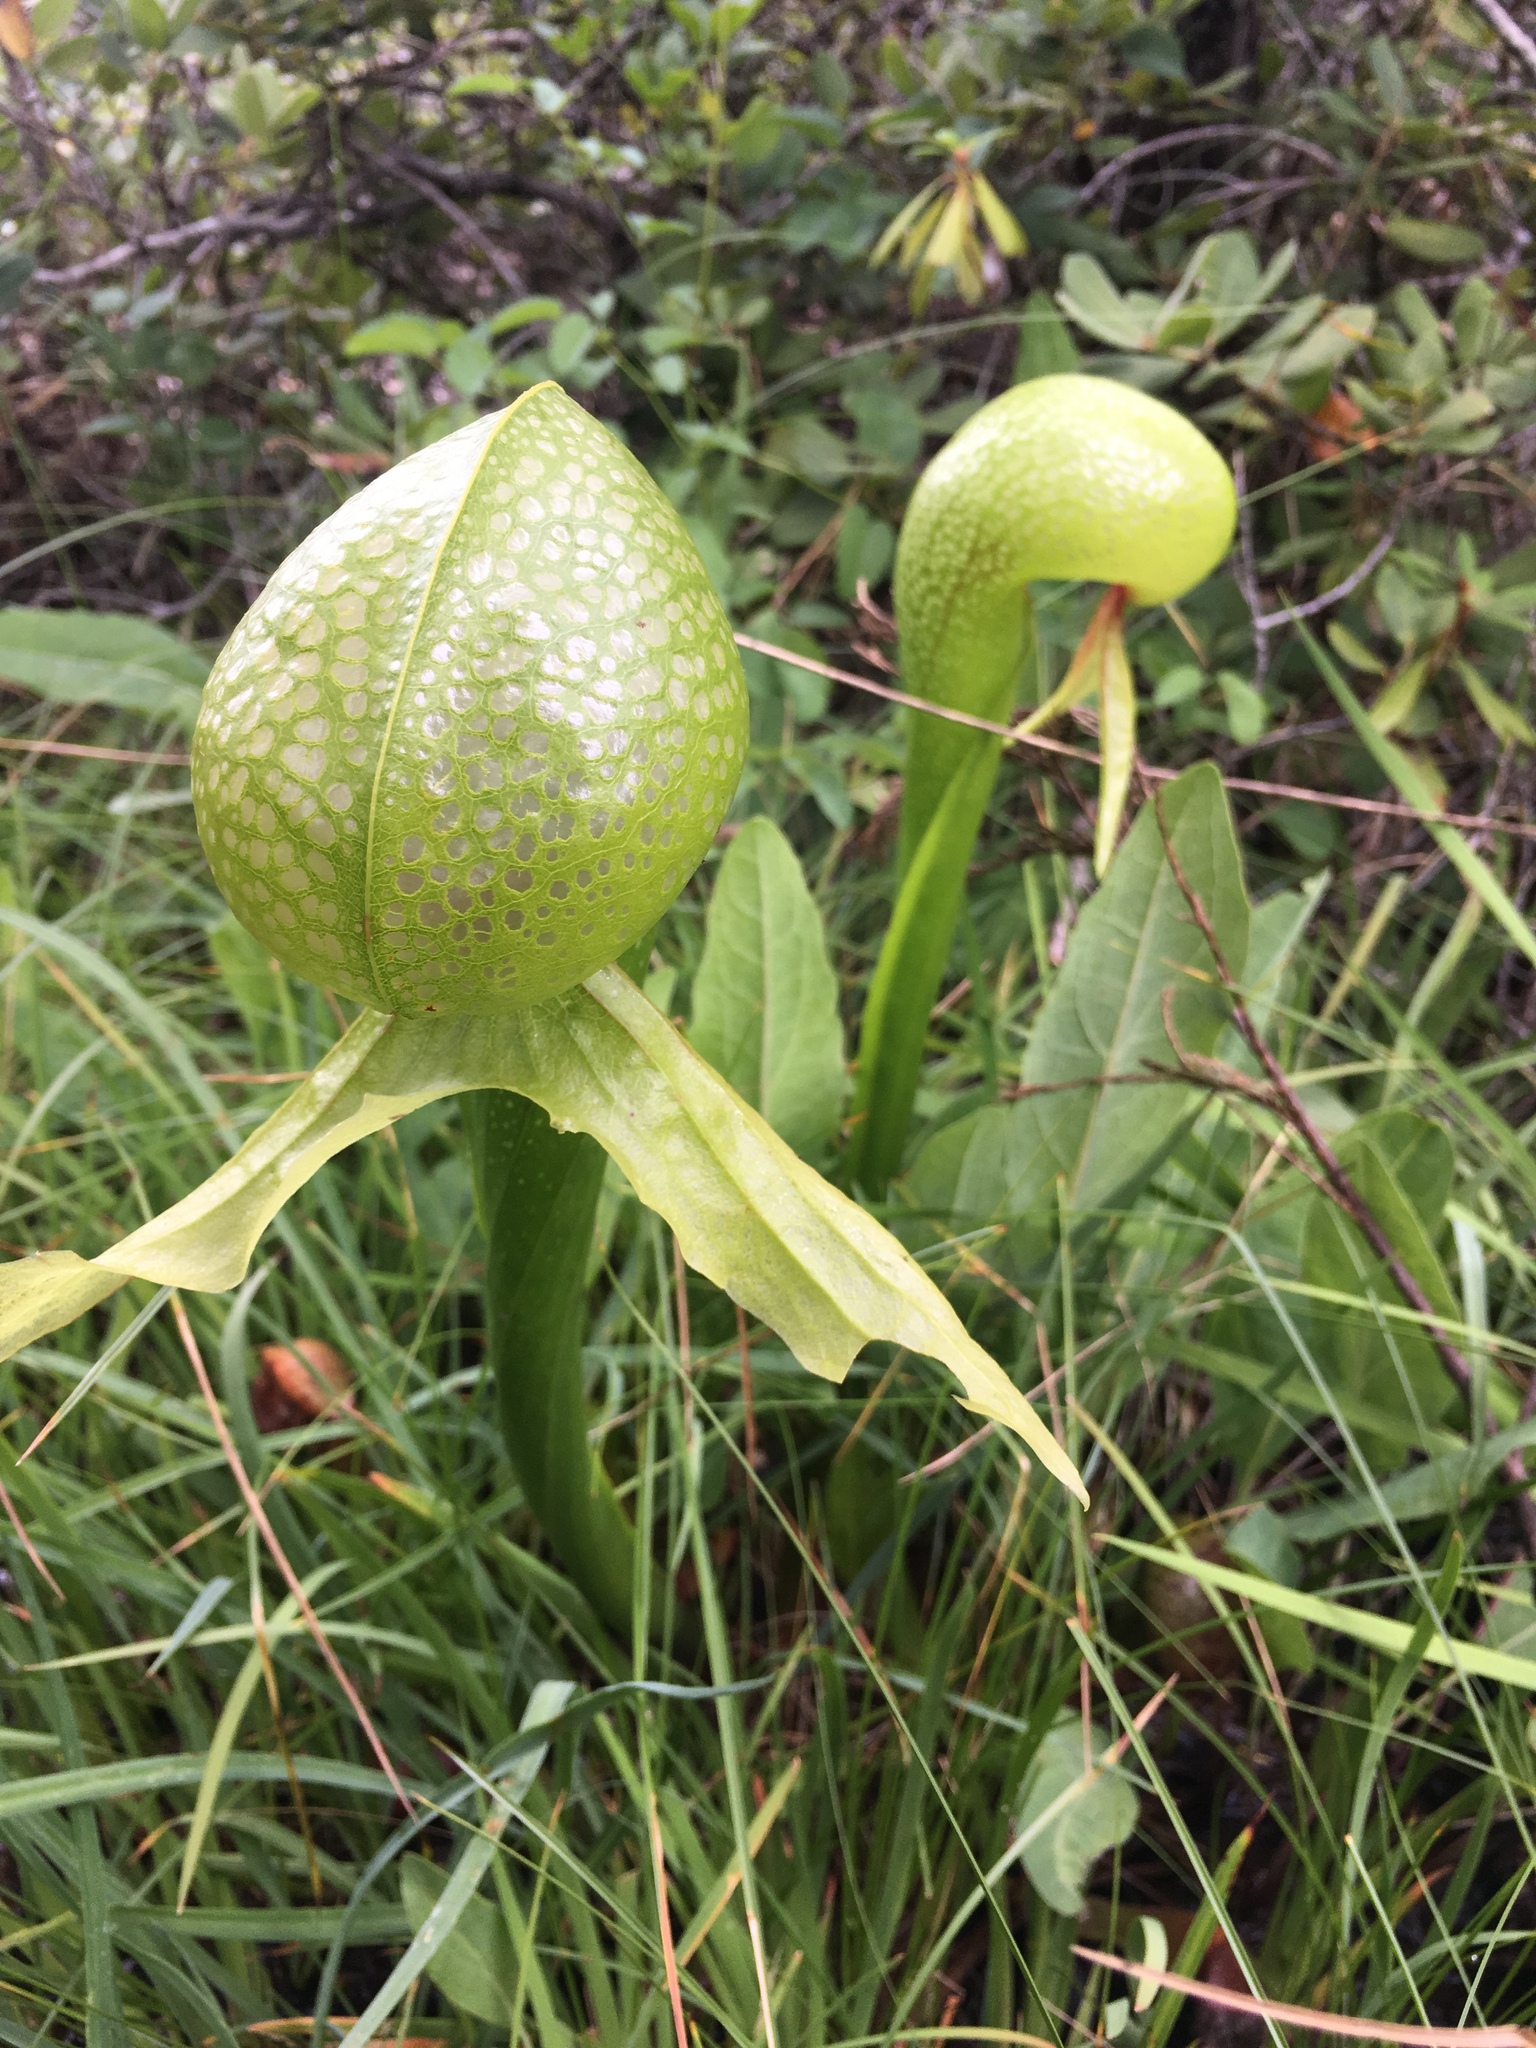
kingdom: Plantae
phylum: Tracheophyta
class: Magnoliopsida
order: Ericales
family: Sarraceniaceae
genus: Darlingtonia
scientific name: Darlingtonia californica
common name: California pitcher plant
